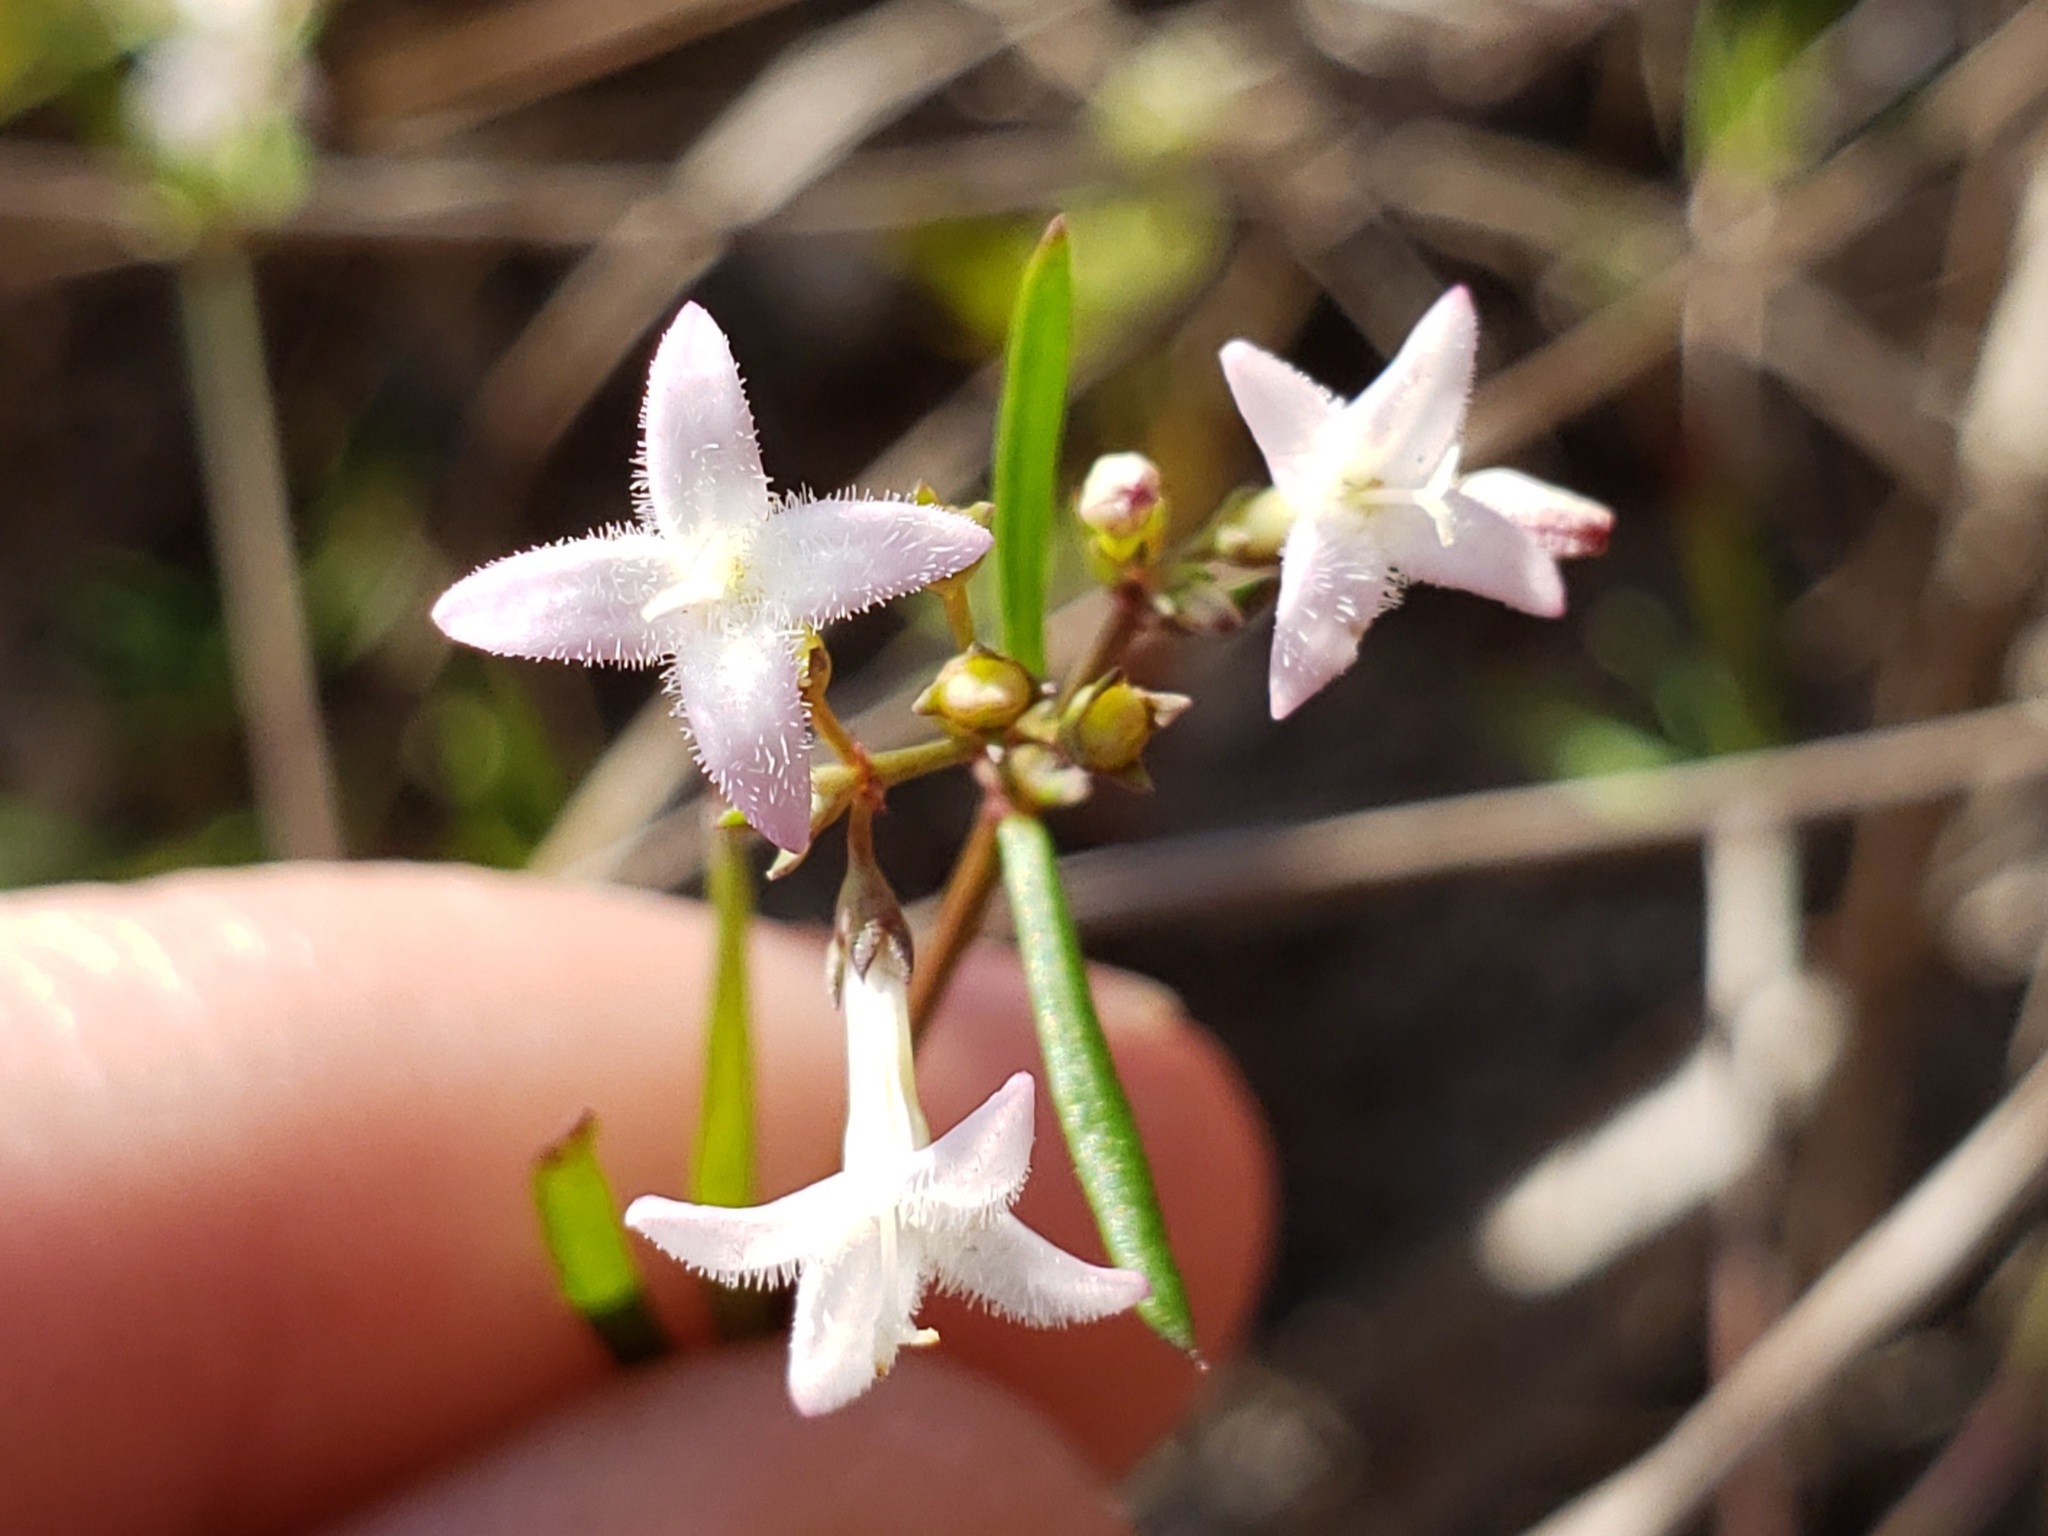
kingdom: Plantae
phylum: Tracheophyta
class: Magnoliopsida
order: Gentianales
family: Rubiaceae
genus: Stenaria
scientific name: Stenaria nigricans
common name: Diamondflowers
